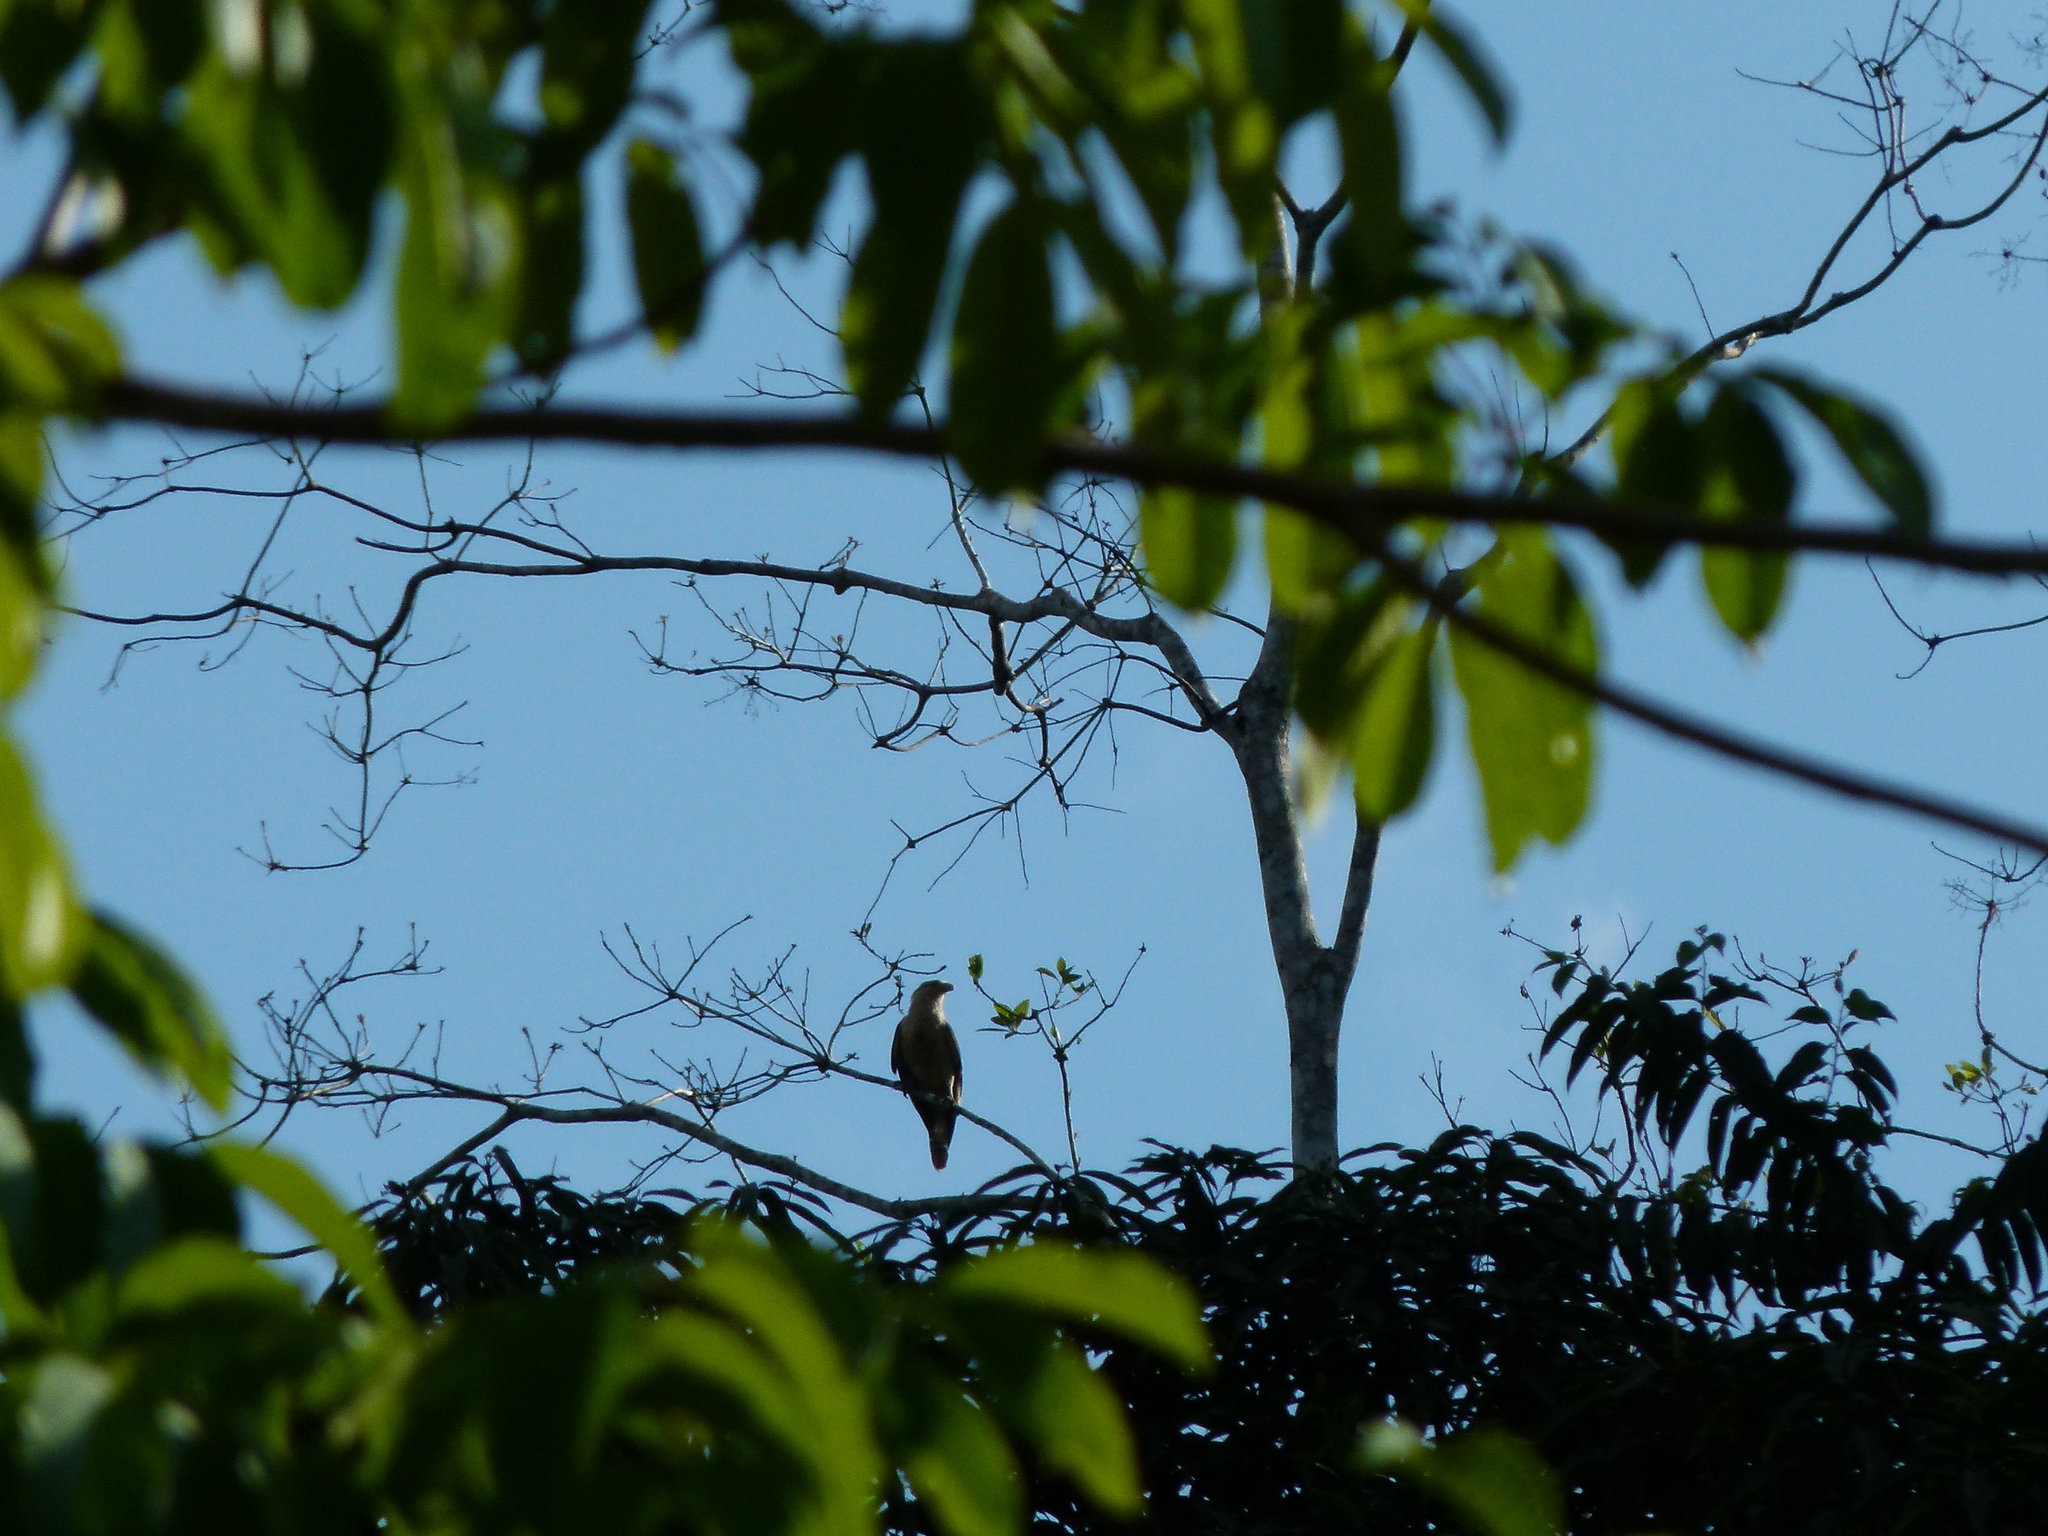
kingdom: Animalia
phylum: Chordata
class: Aves
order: Falconiformes
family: Falconidae
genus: Daptrius
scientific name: Daptrius
